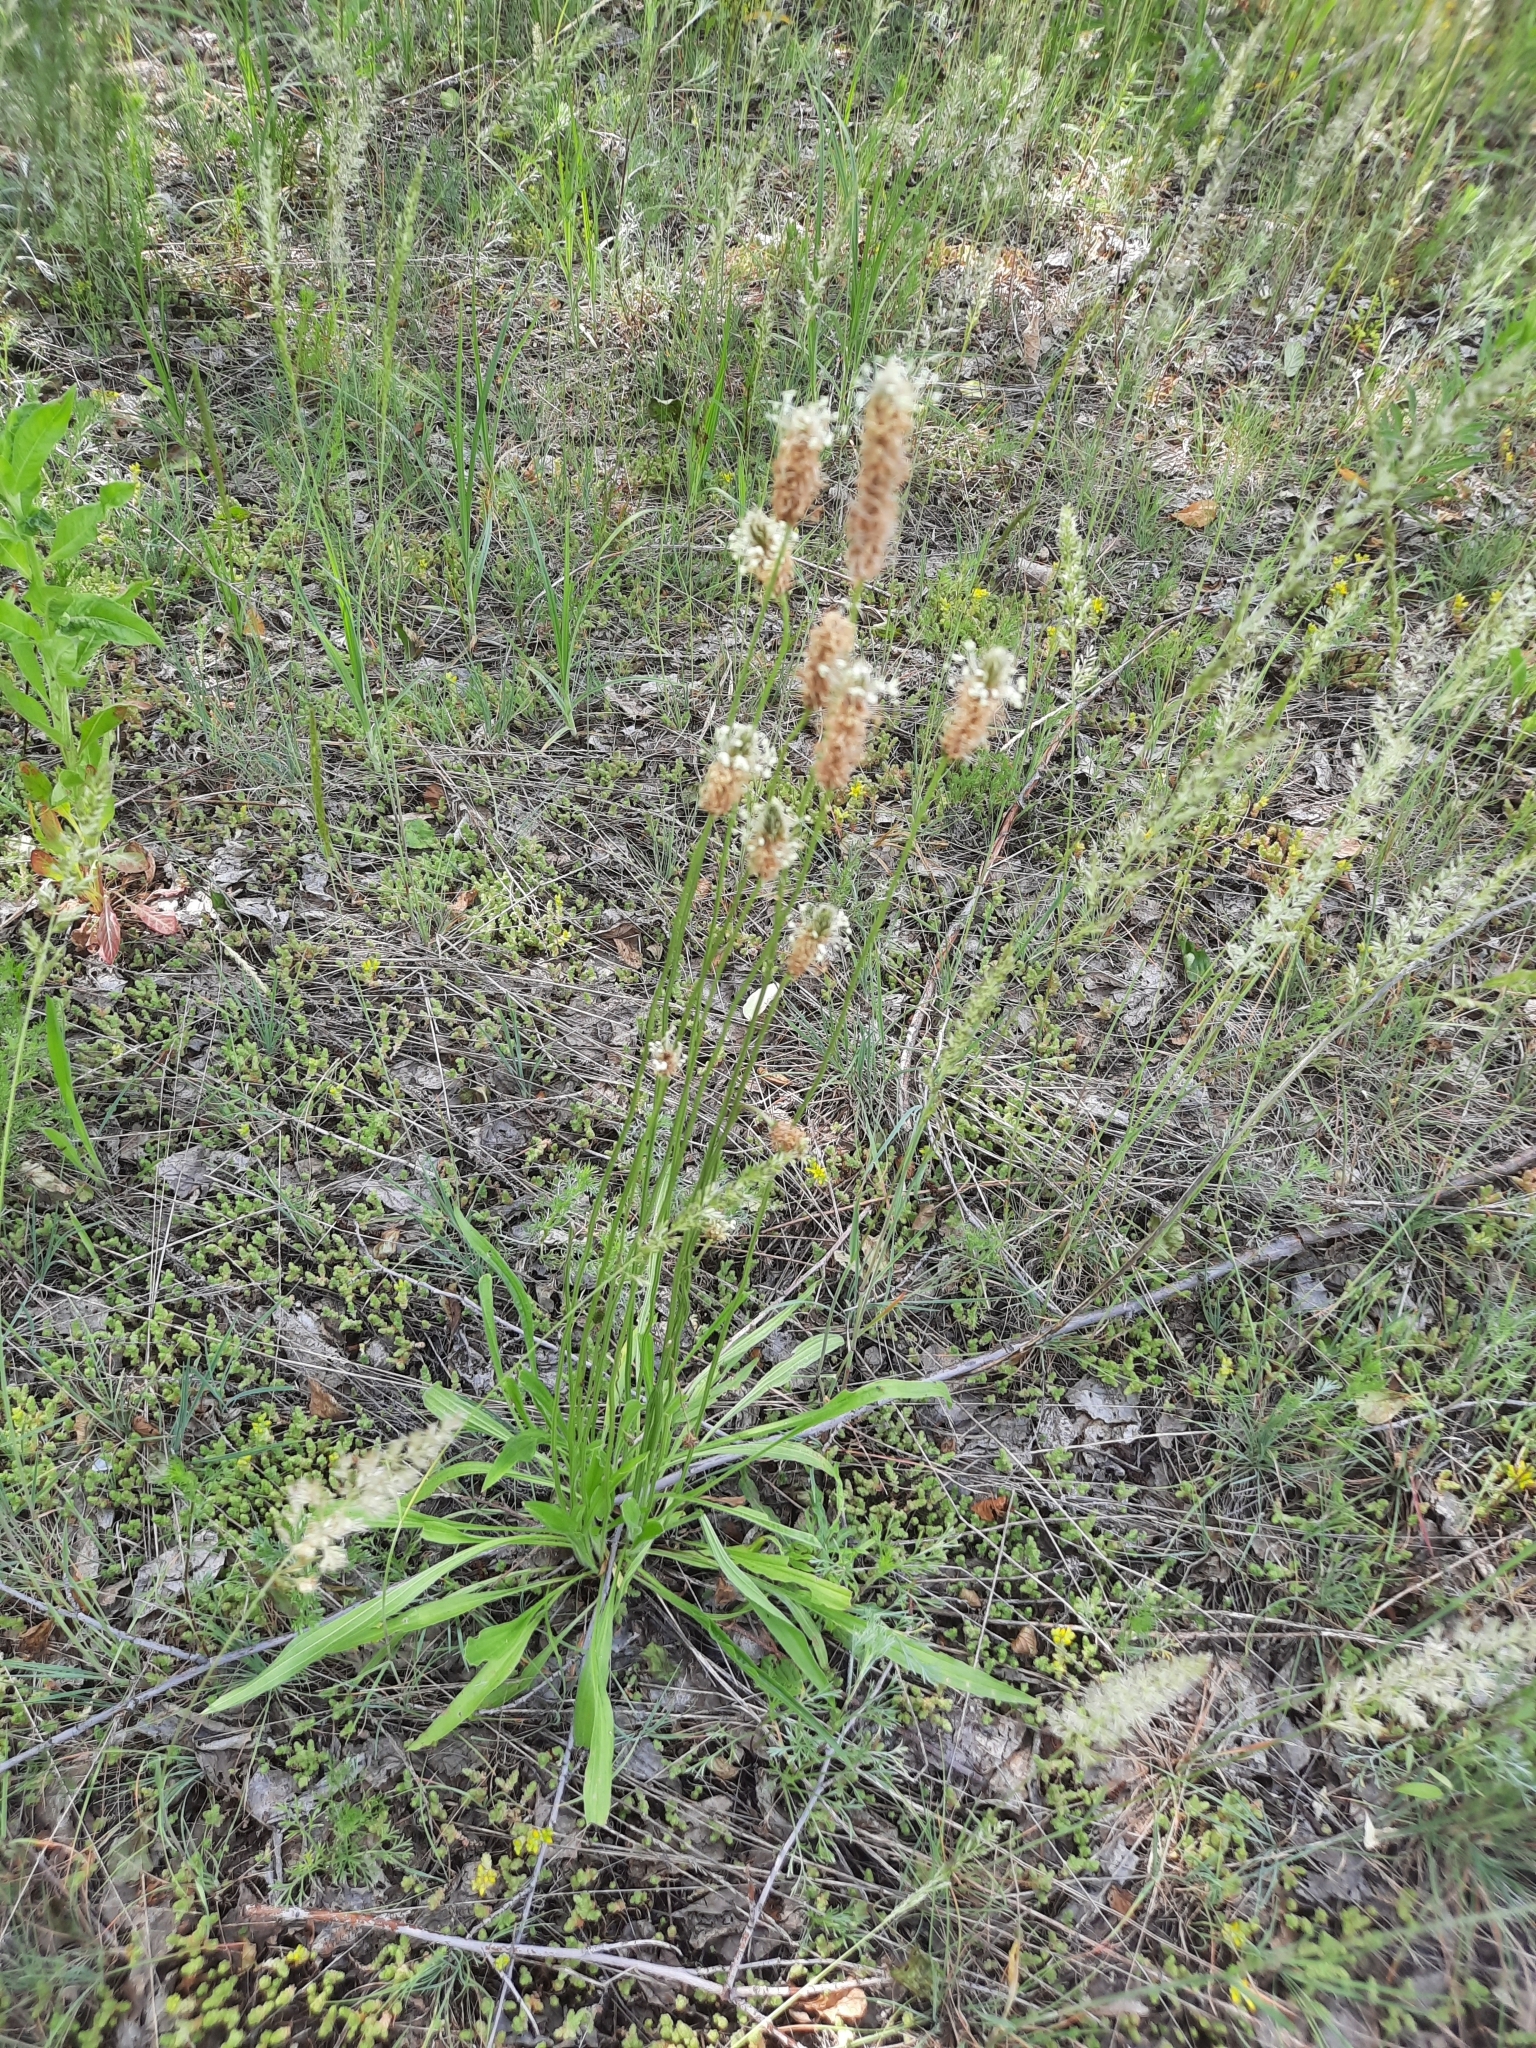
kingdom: Plantae
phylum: Tracheophyta
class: Magnoliopsida
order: Lamiales
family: Plantaginaceae
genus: Plantago
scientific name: Plantago lanceolata
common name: Ribwort plantain
